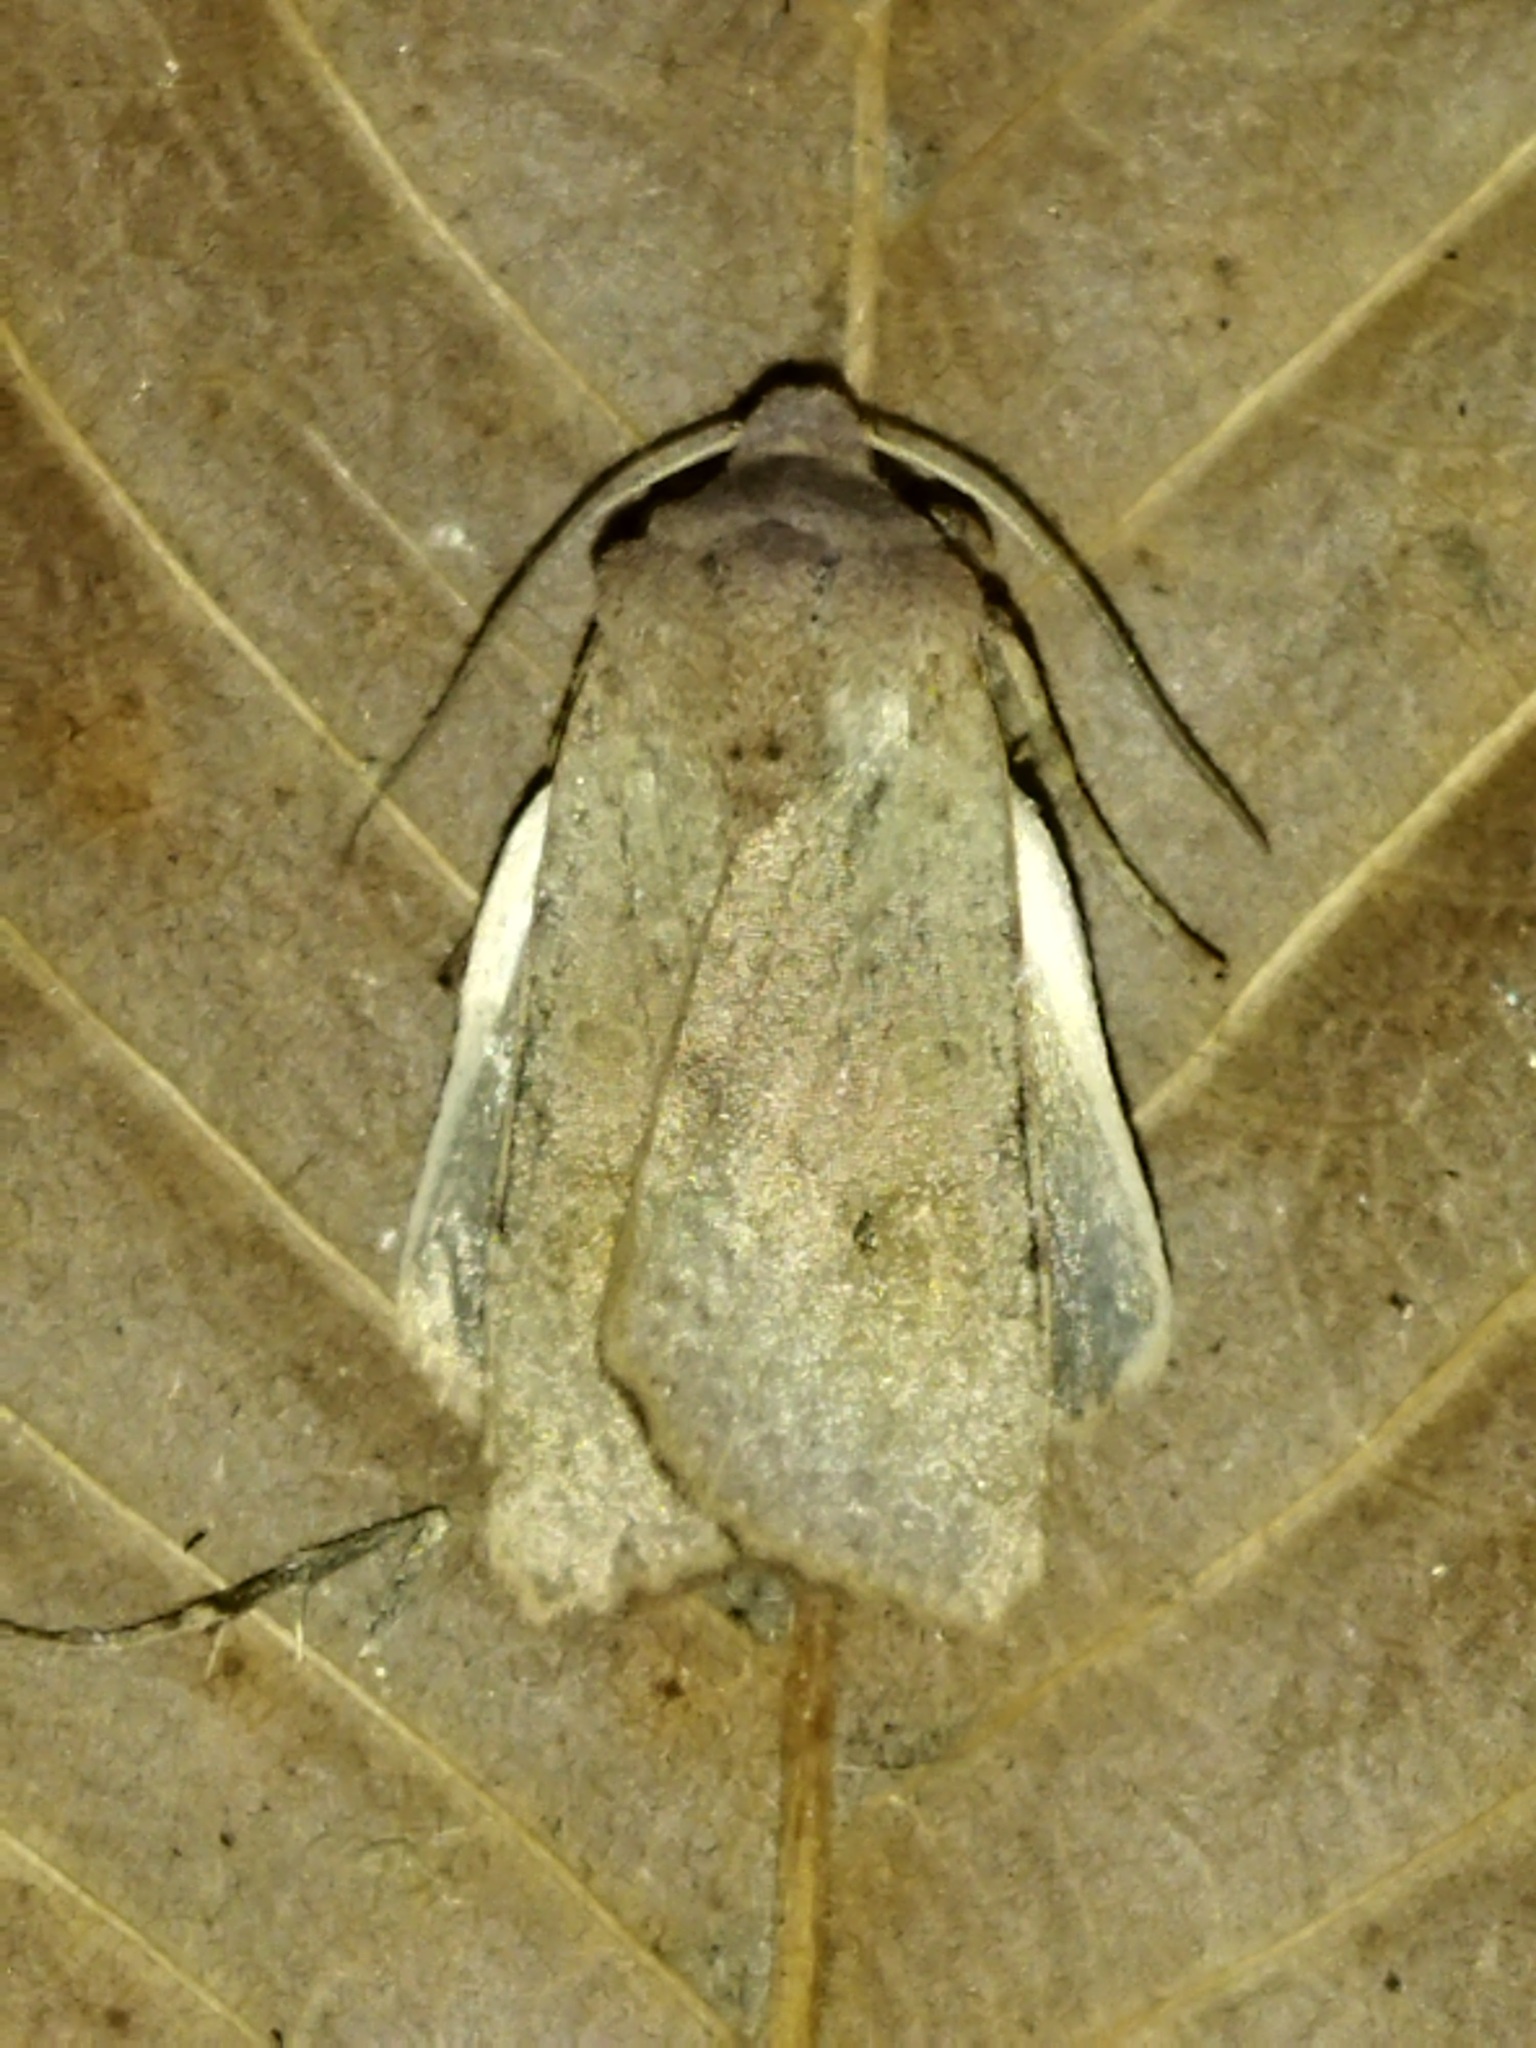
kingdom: Animalia
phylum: Arthropoda
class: Insecta
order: Lepidoptera
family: Noctuidae
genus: Agrochola
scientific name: Agrochola rupicapra
